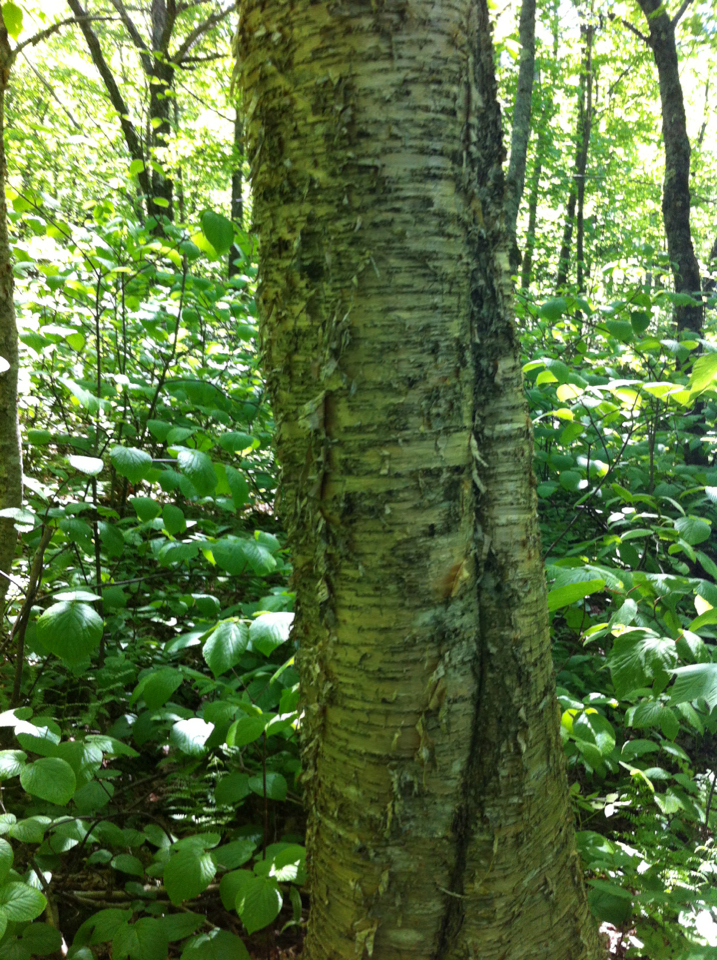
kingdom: Plantae
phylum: Tracheophyta
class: Magnoliopsida
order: Fagales
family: Betulaceae
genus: Betula
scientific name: Betula alleghaniensis
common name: Yellow birch
